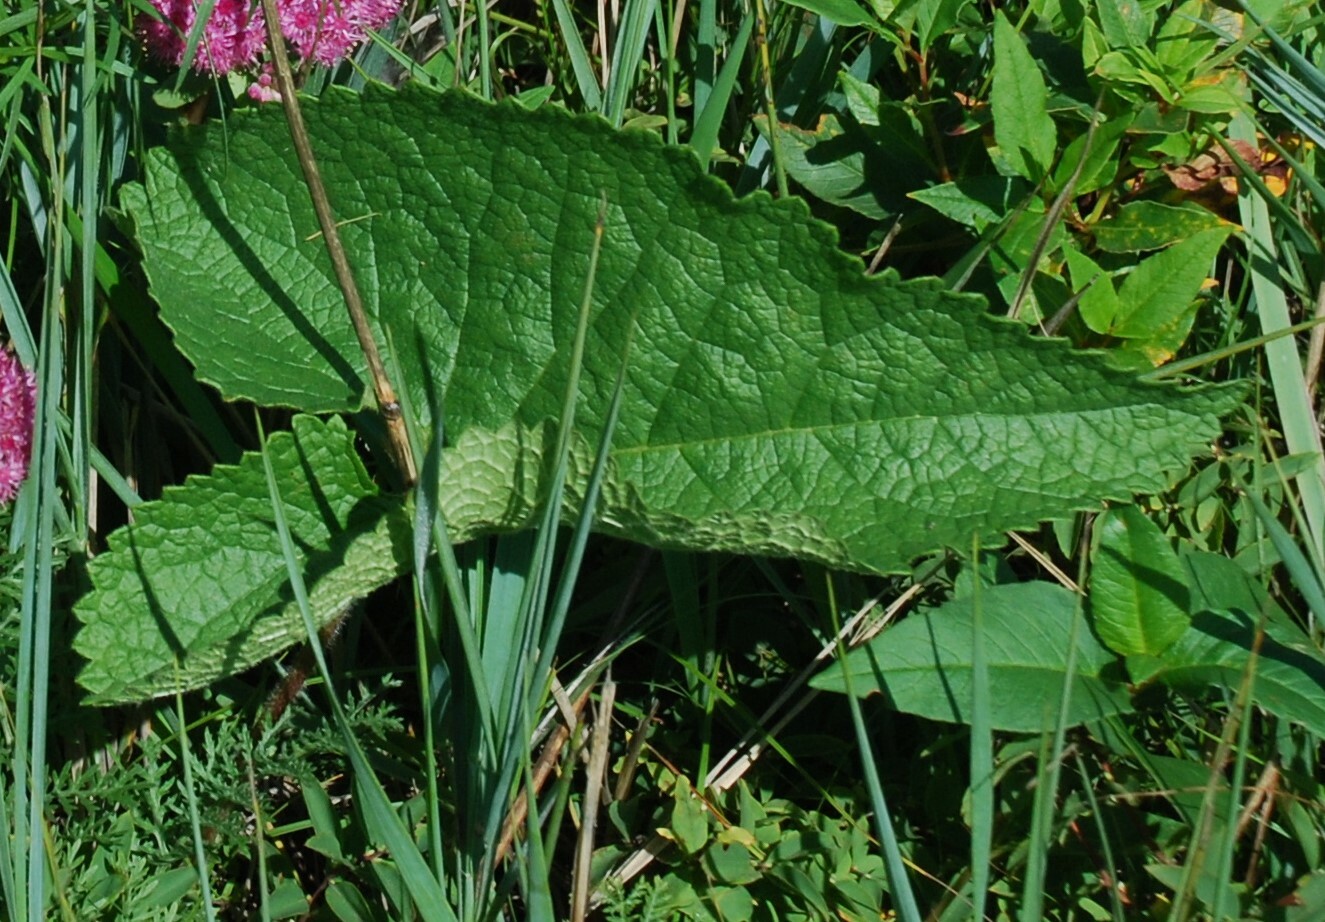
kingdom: Plantae
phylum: Tracheophyta
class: Magnoliopsida
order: Lamiales
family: Lamiaceae
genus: Phlomoides
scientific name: Phlomoides tuberosa
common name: Tuberous jerusalem sage
